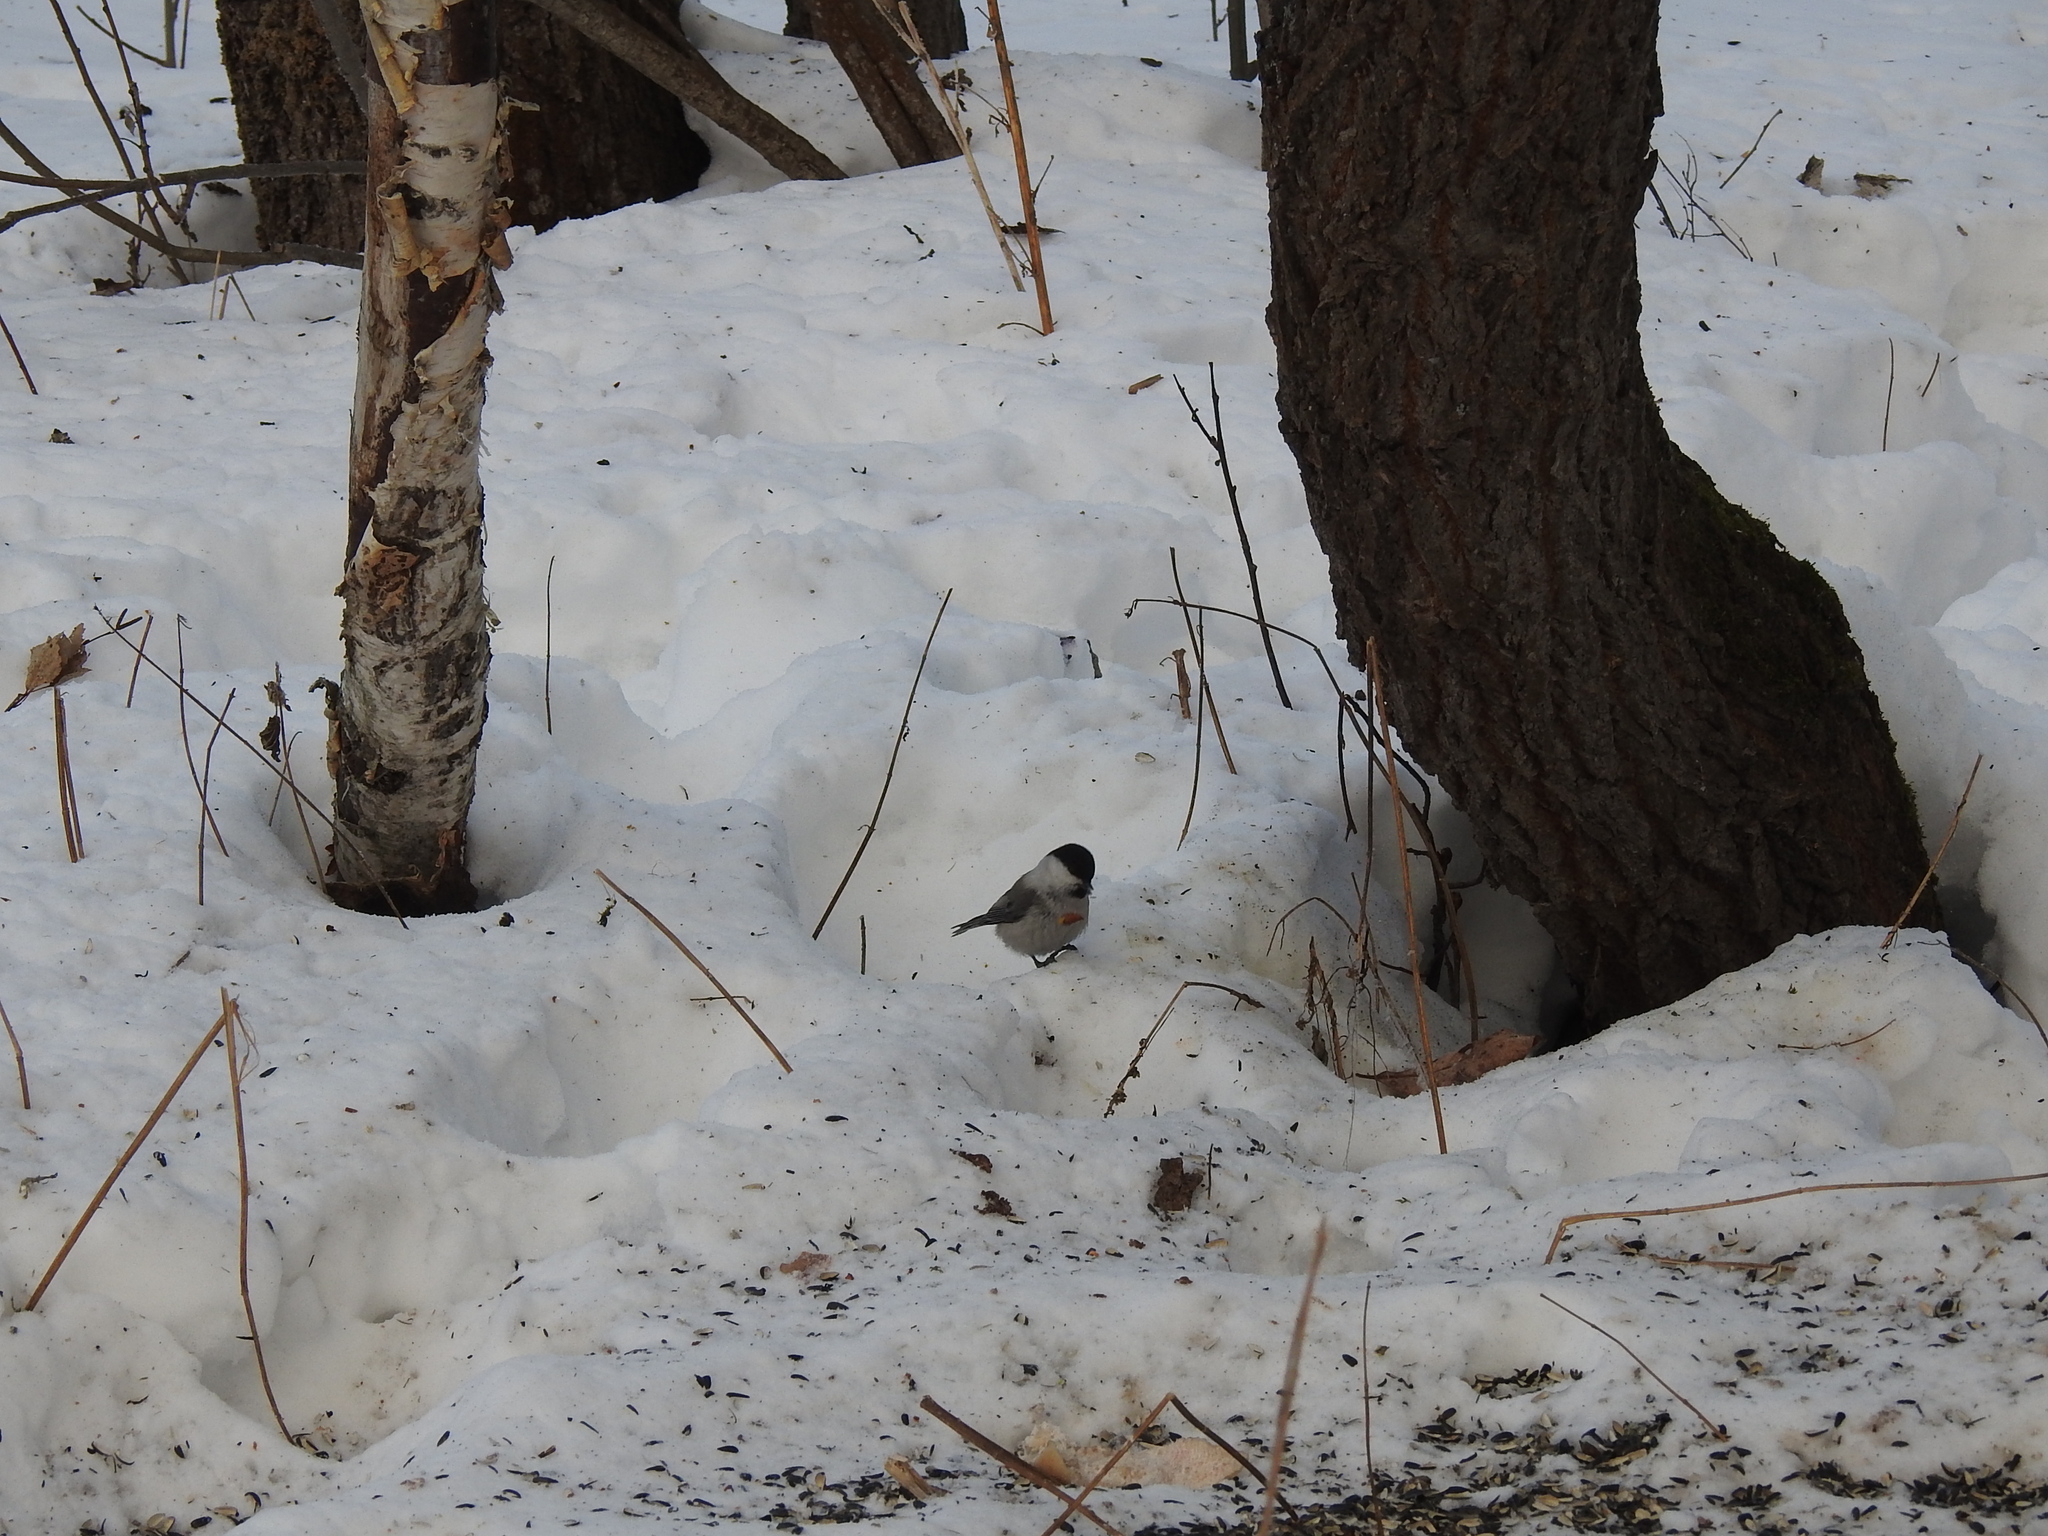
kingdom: Animalia
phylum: Chordata
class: Aves
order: Passeriformes
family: Paridae
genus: Poecile
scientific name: Poecile montanus
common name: Willow tit
